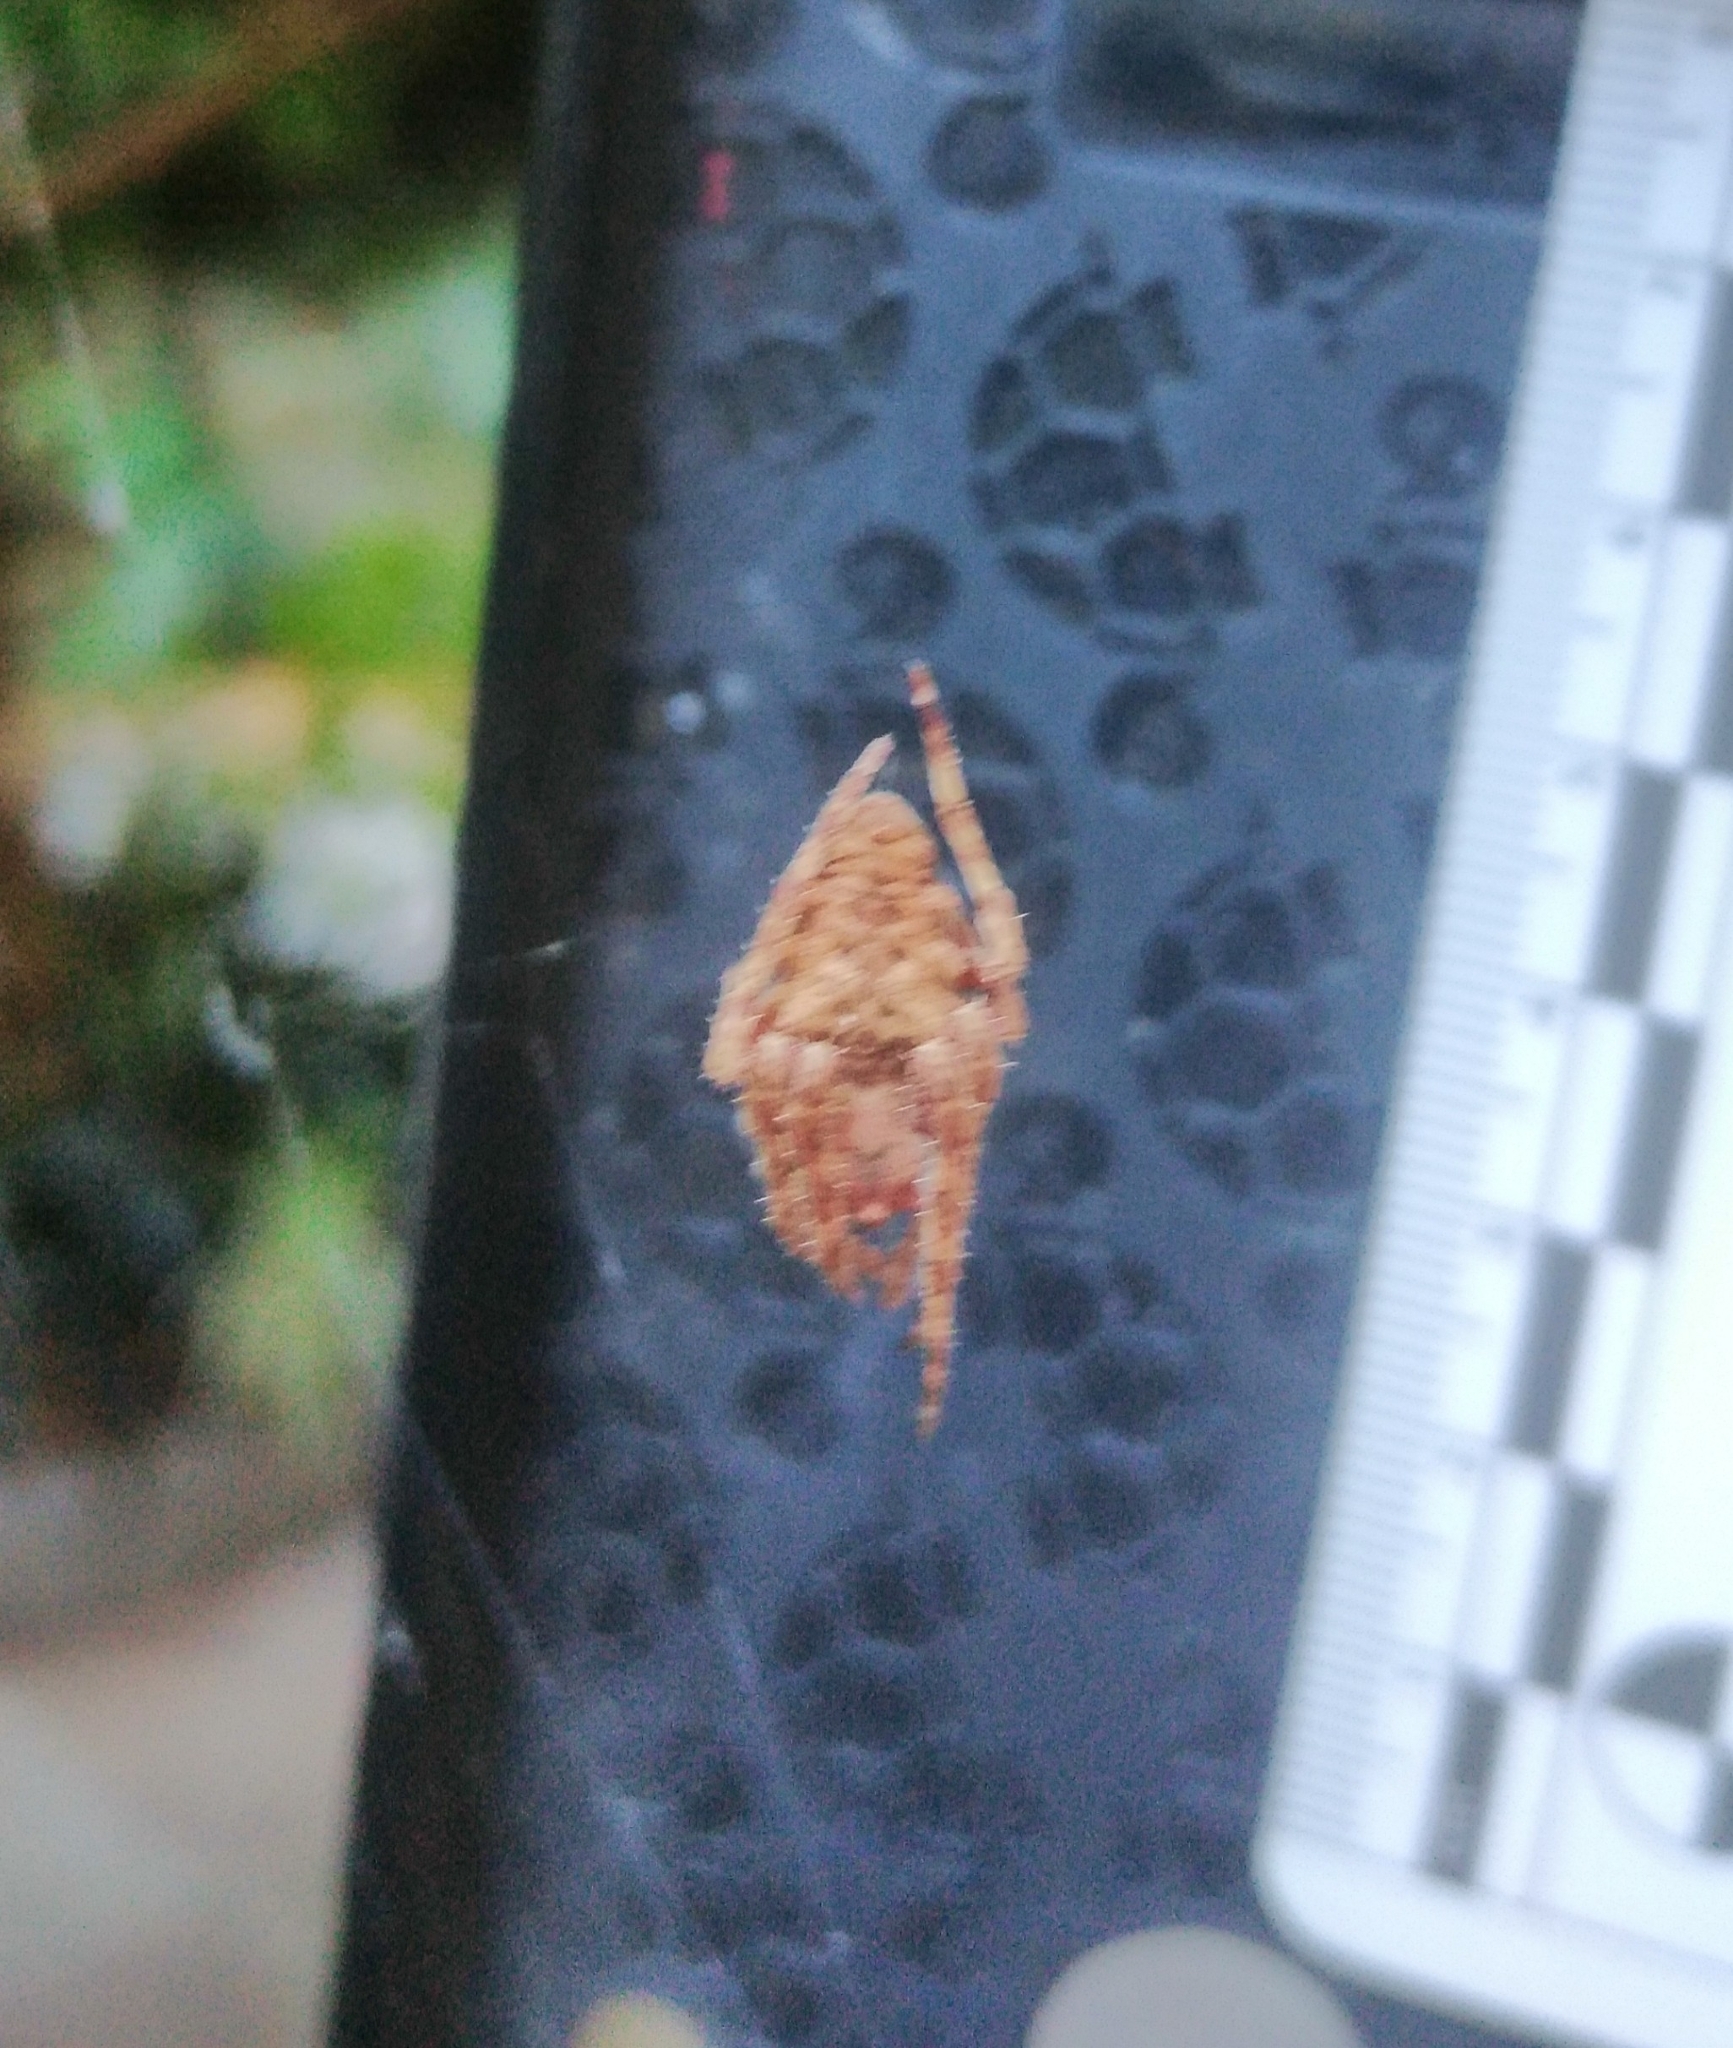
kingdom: Animalia
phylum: Arthropoda
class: Arachnida
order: Araneae
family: Araneidae
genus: Parawixia
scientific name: Parawixia audax
